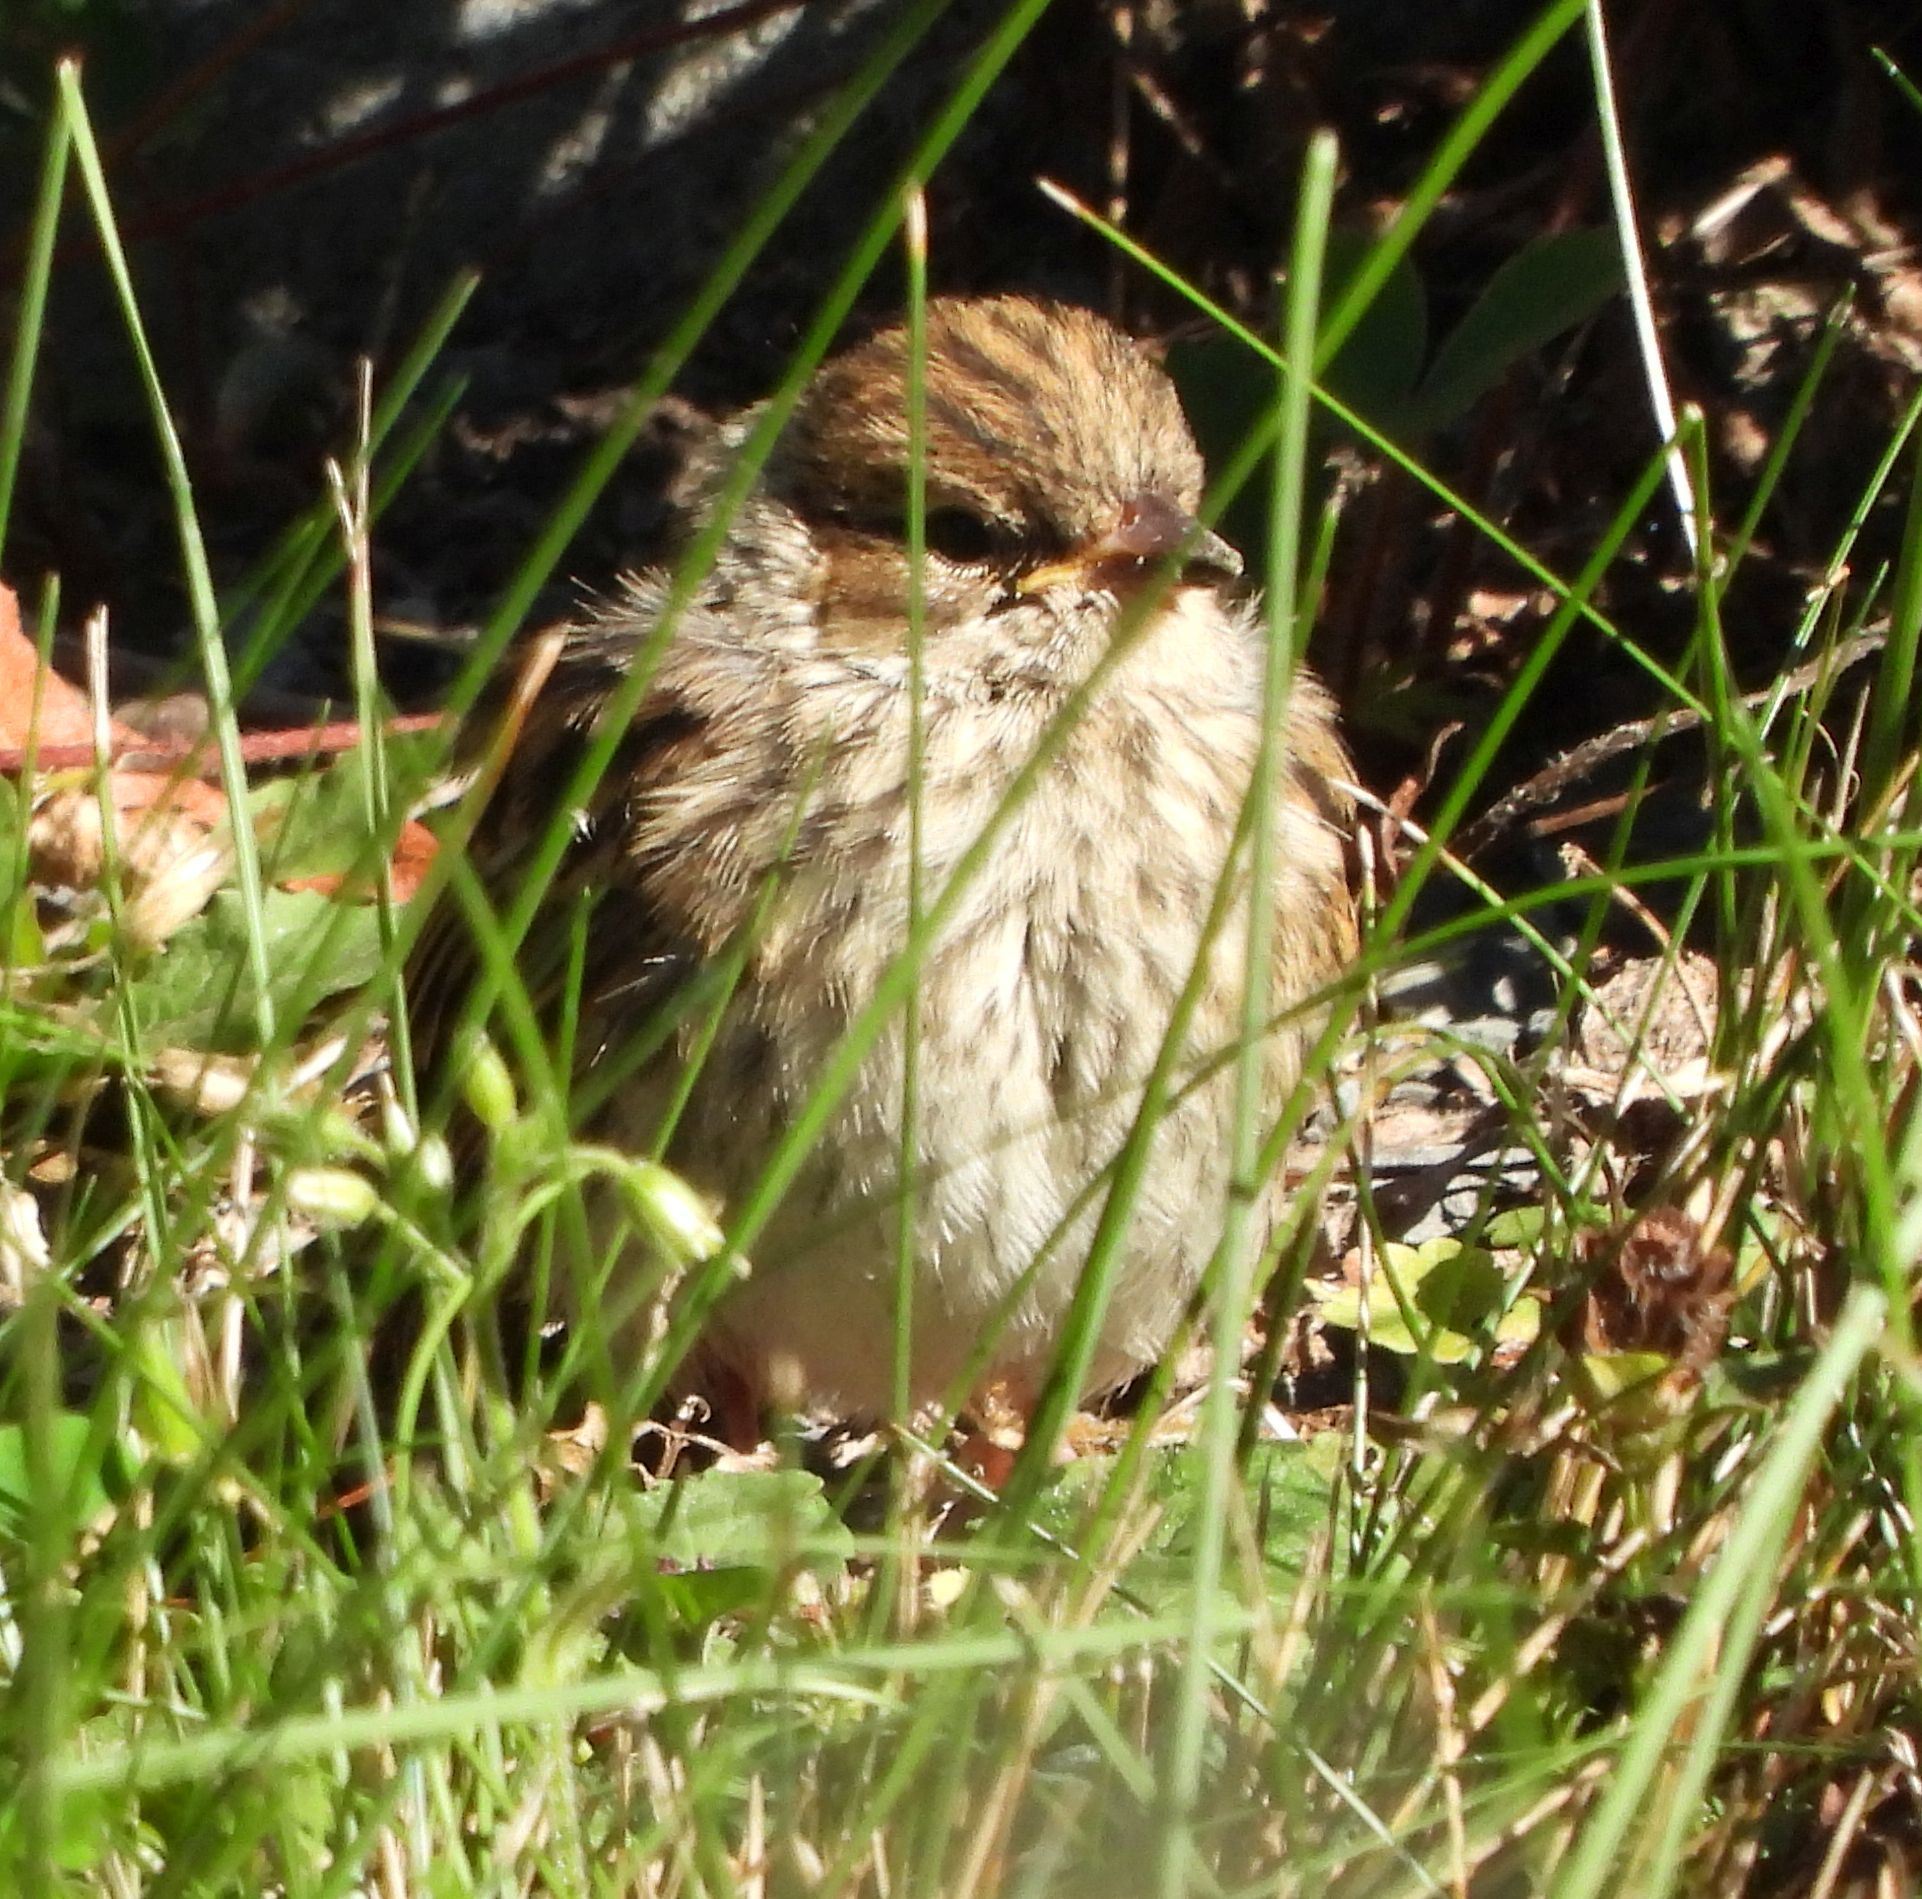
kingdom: Animalia
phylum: Chordata
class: Aves
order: Passeriformes
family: Passerellidae
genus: Spizella
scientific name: Spizella passerina
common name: Chipping sparrow
